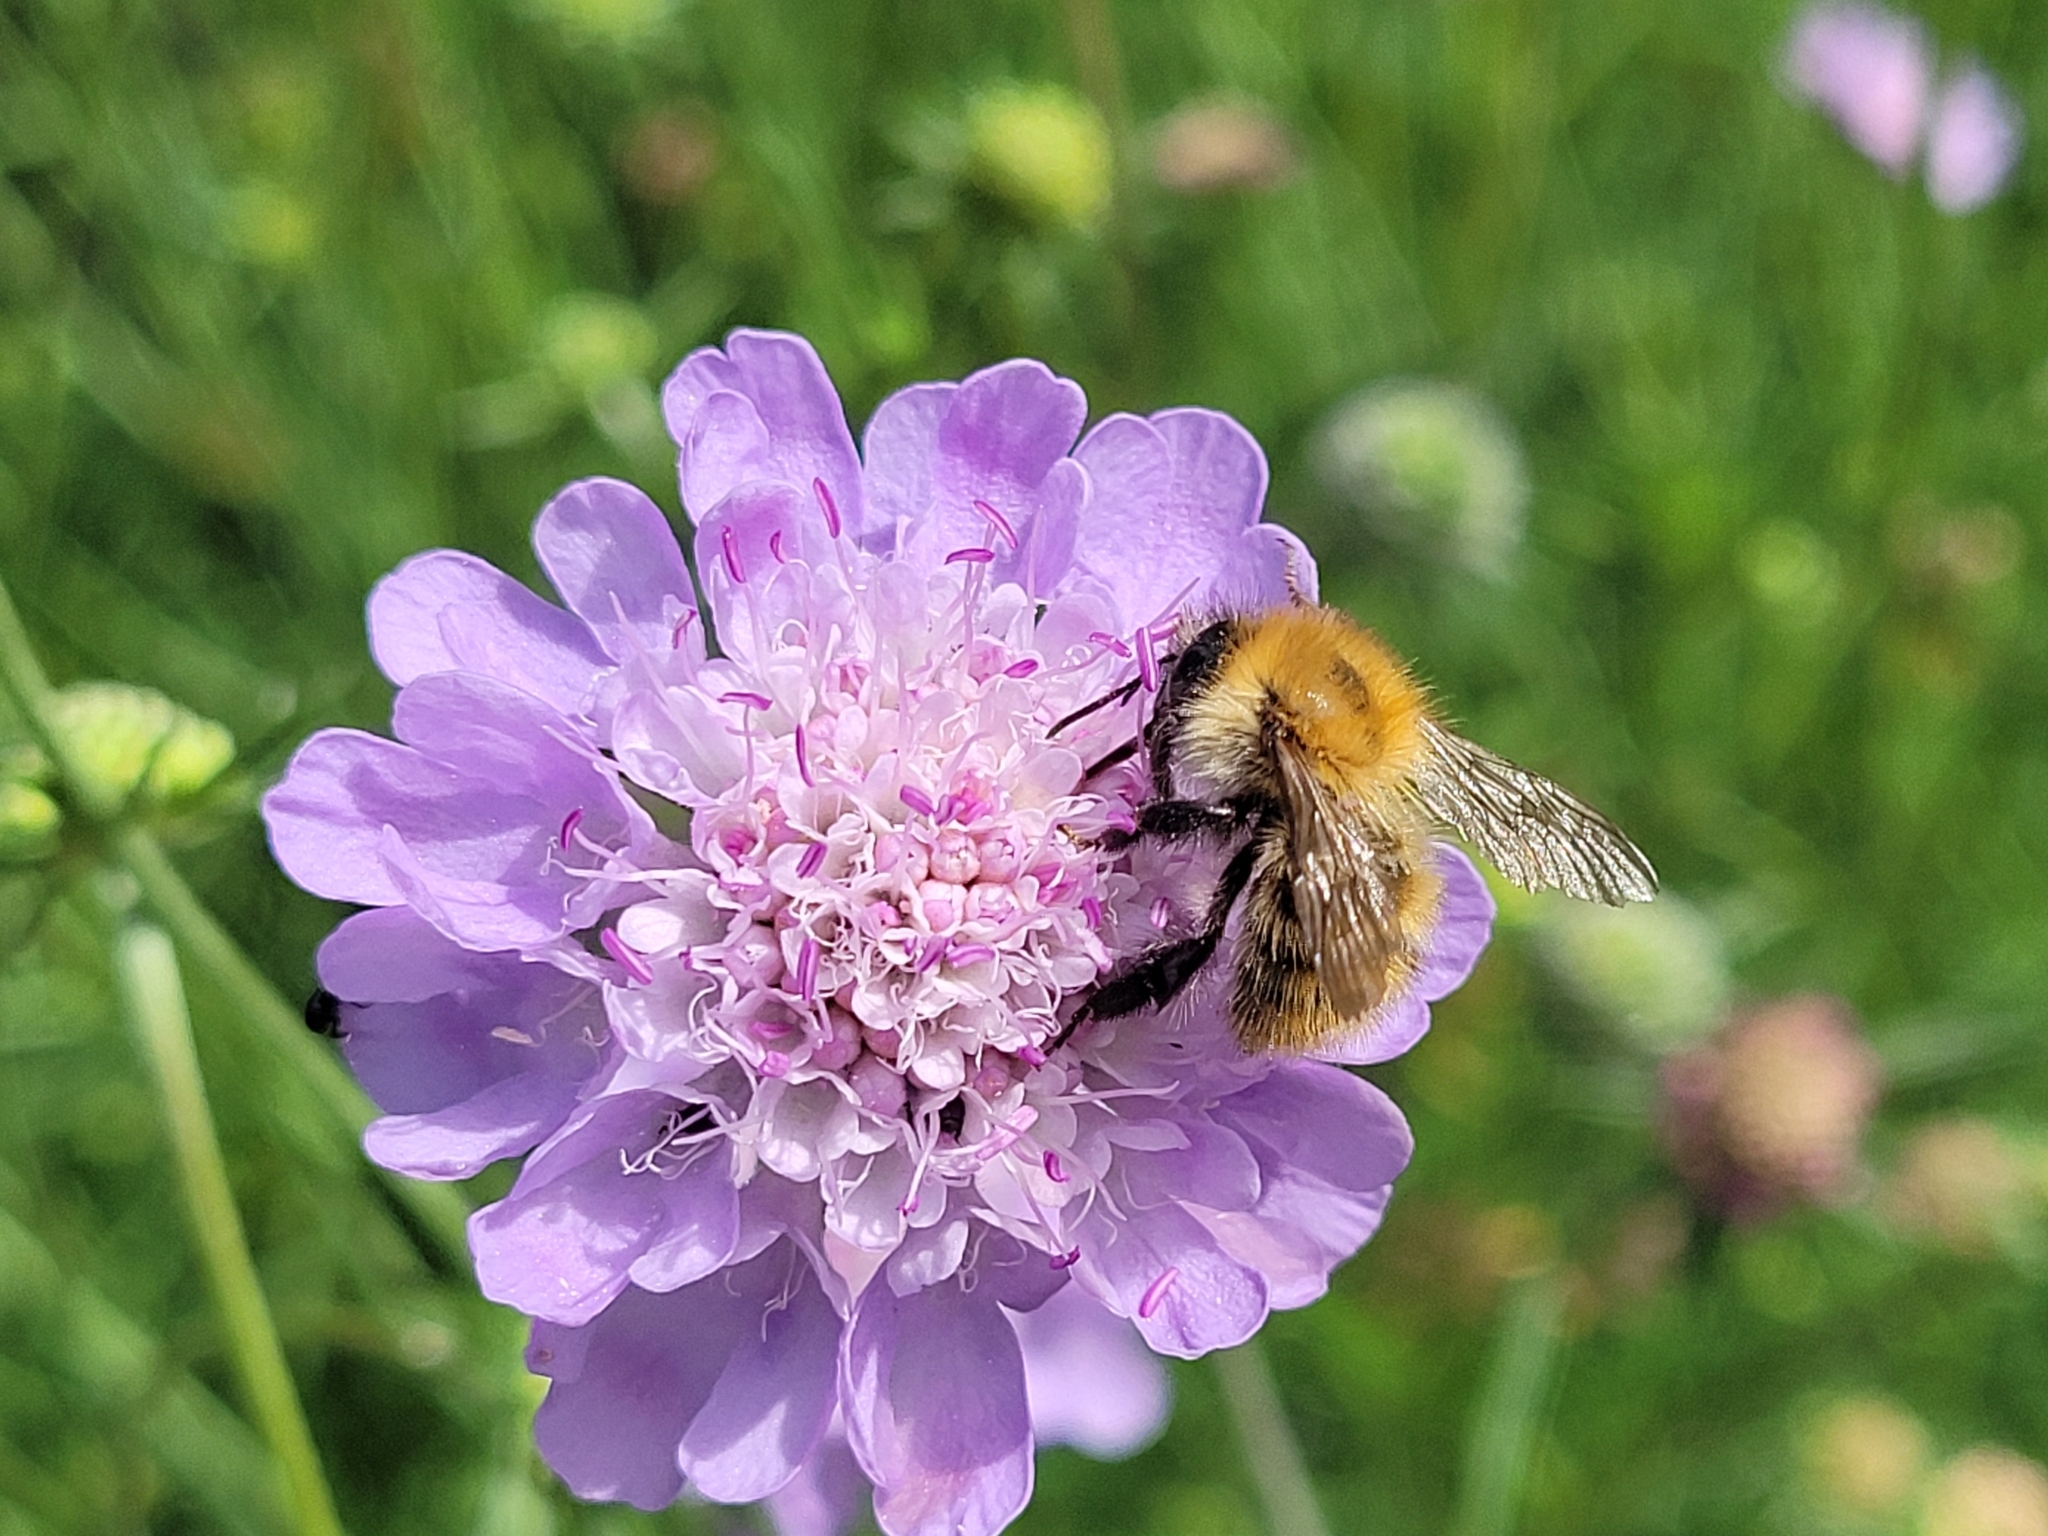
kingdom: Animalia
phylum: Arthropoda
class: Insecta
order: Hymenoptera
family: Apidae
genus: Bombus
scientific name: Bombus pascuorum
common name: Common carder bee
